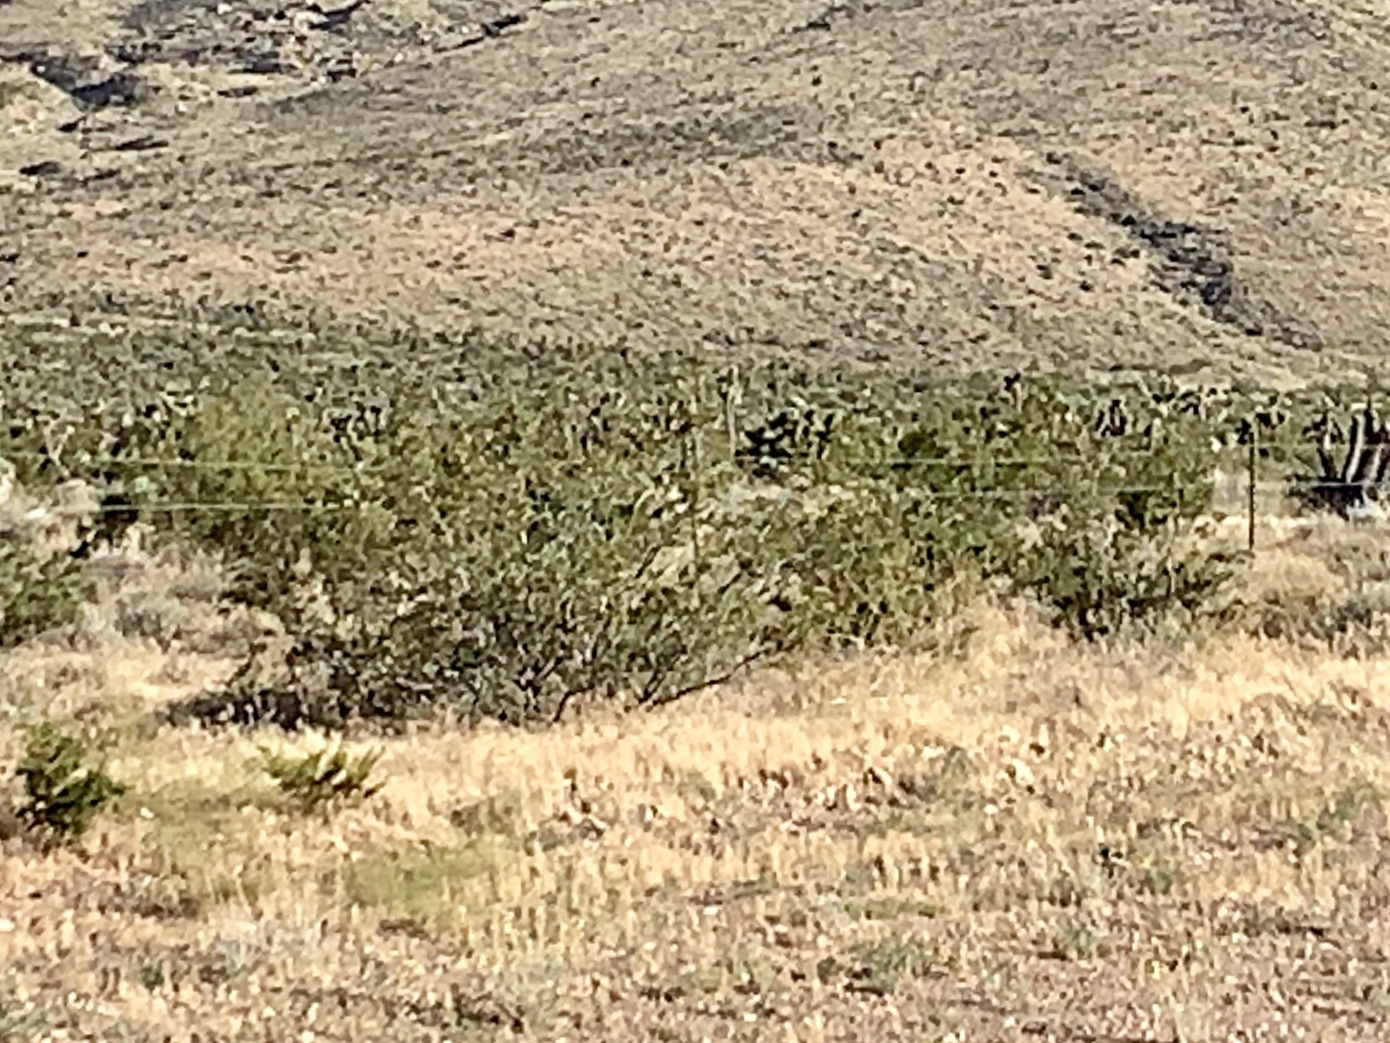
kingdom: Plantae
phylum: Tracheophyta
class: Magnoliopsida
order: Zygophyllales
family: Zygophyllaceae
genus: Larrea
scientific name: Larrea tridentata
